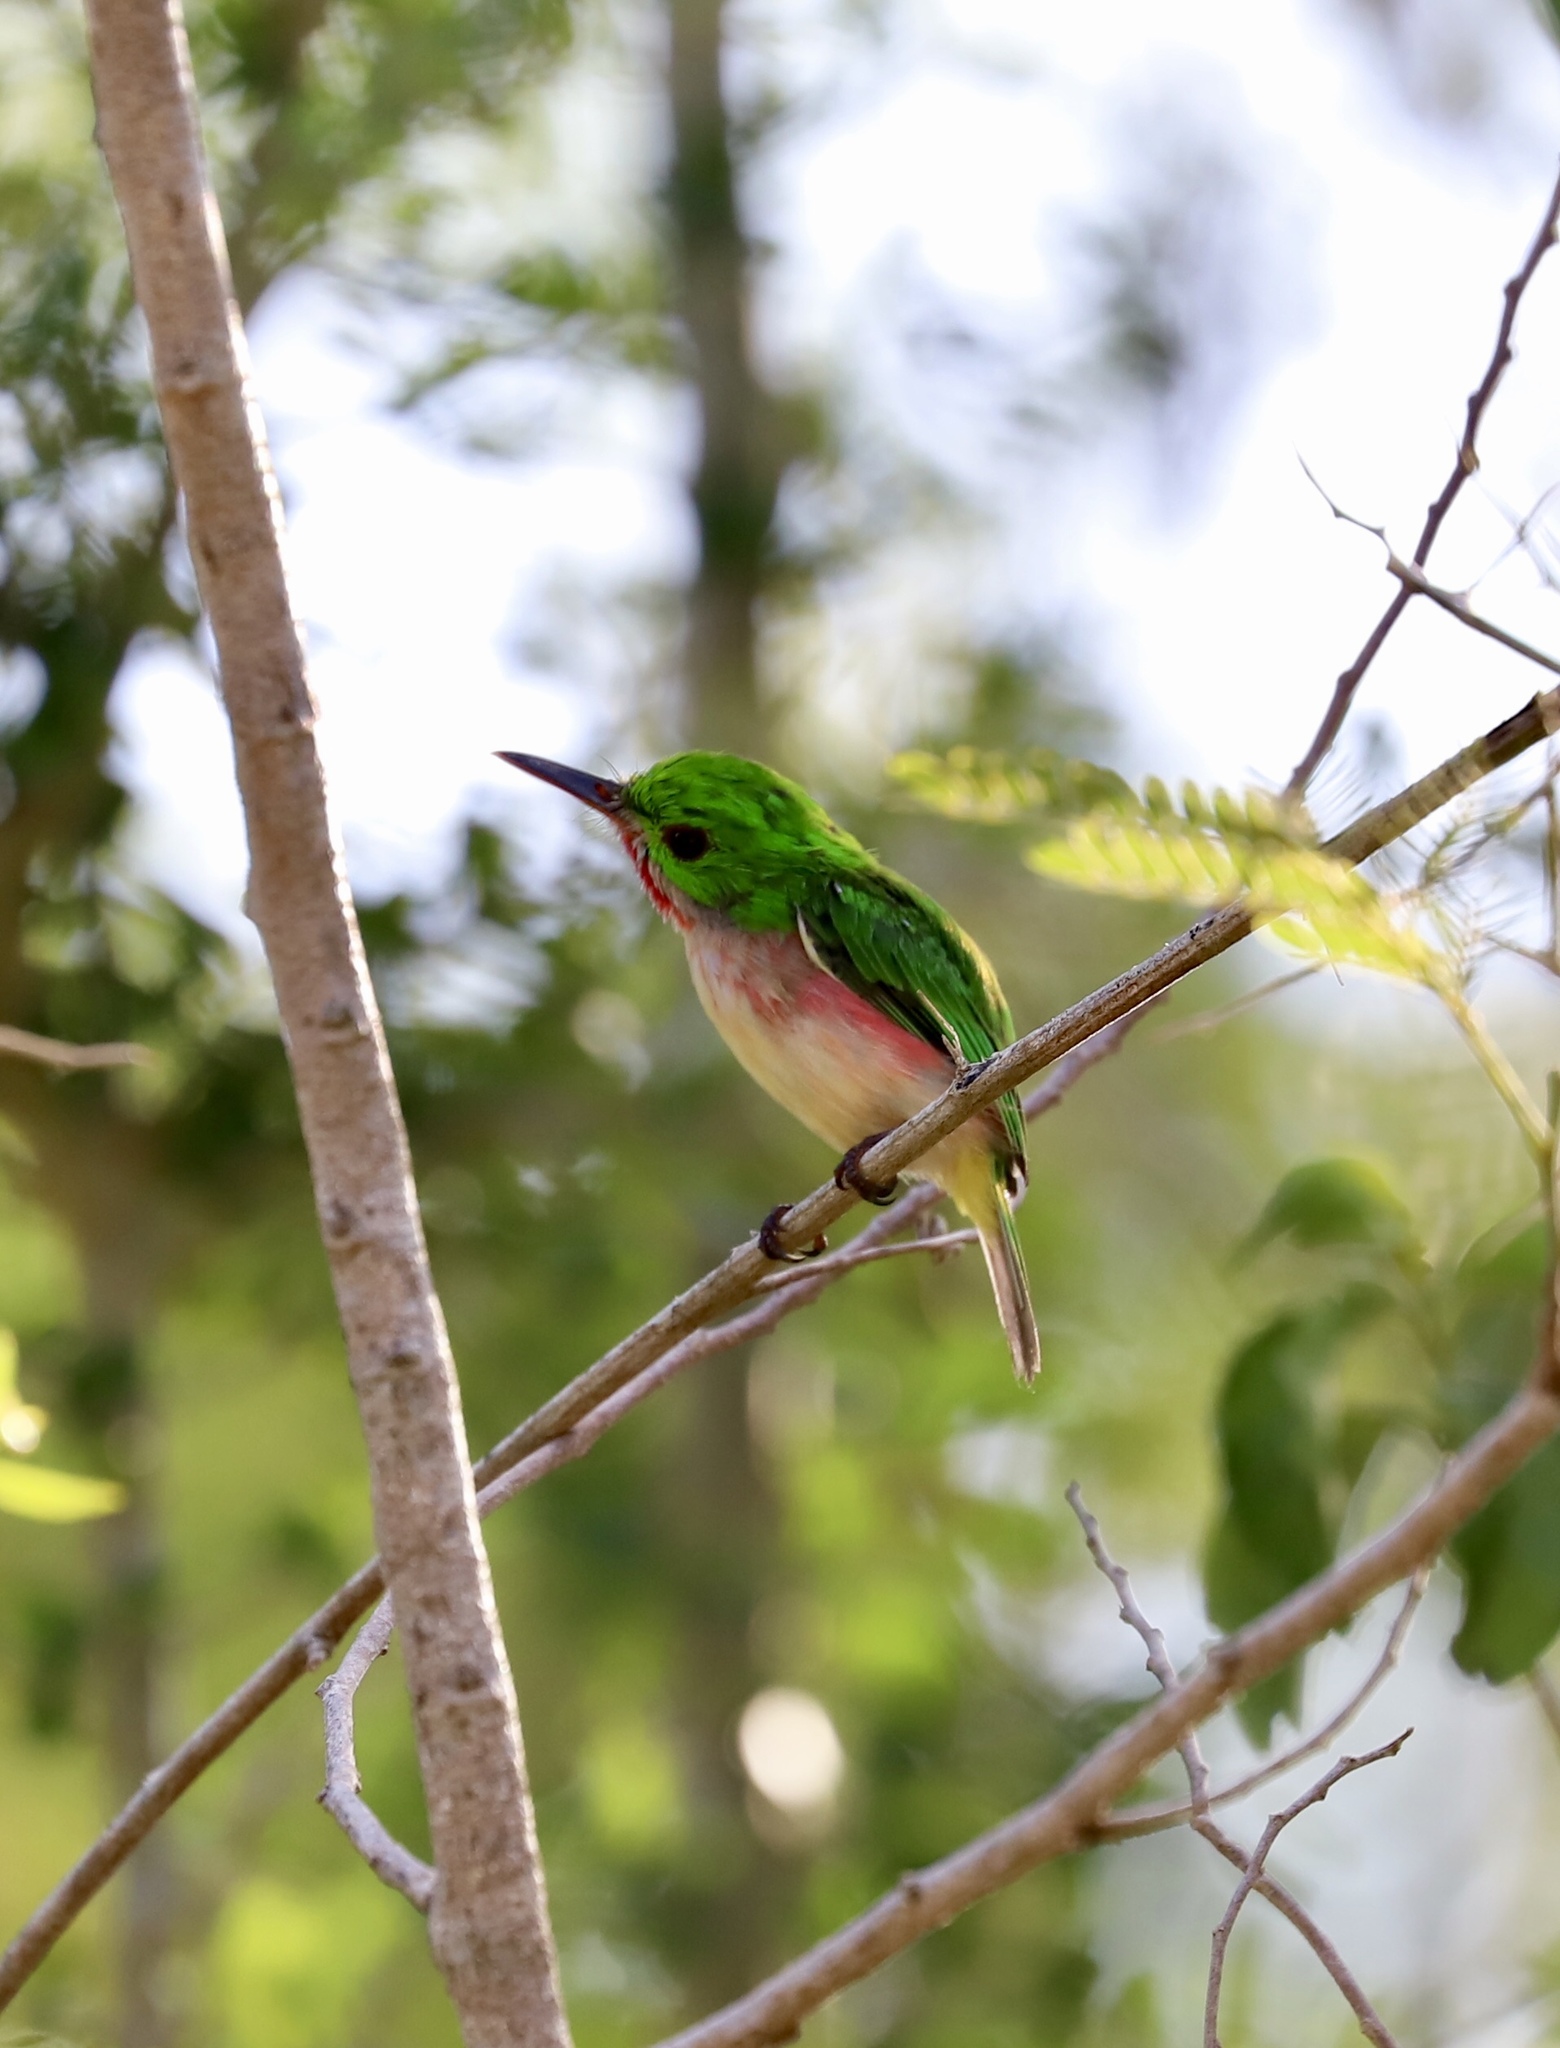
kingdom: Animalia
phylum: Chordata
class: Aves
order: Coraciiformes
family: Todidae
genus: Todus
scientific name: Todus subulatus
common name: Broad-billed tody
